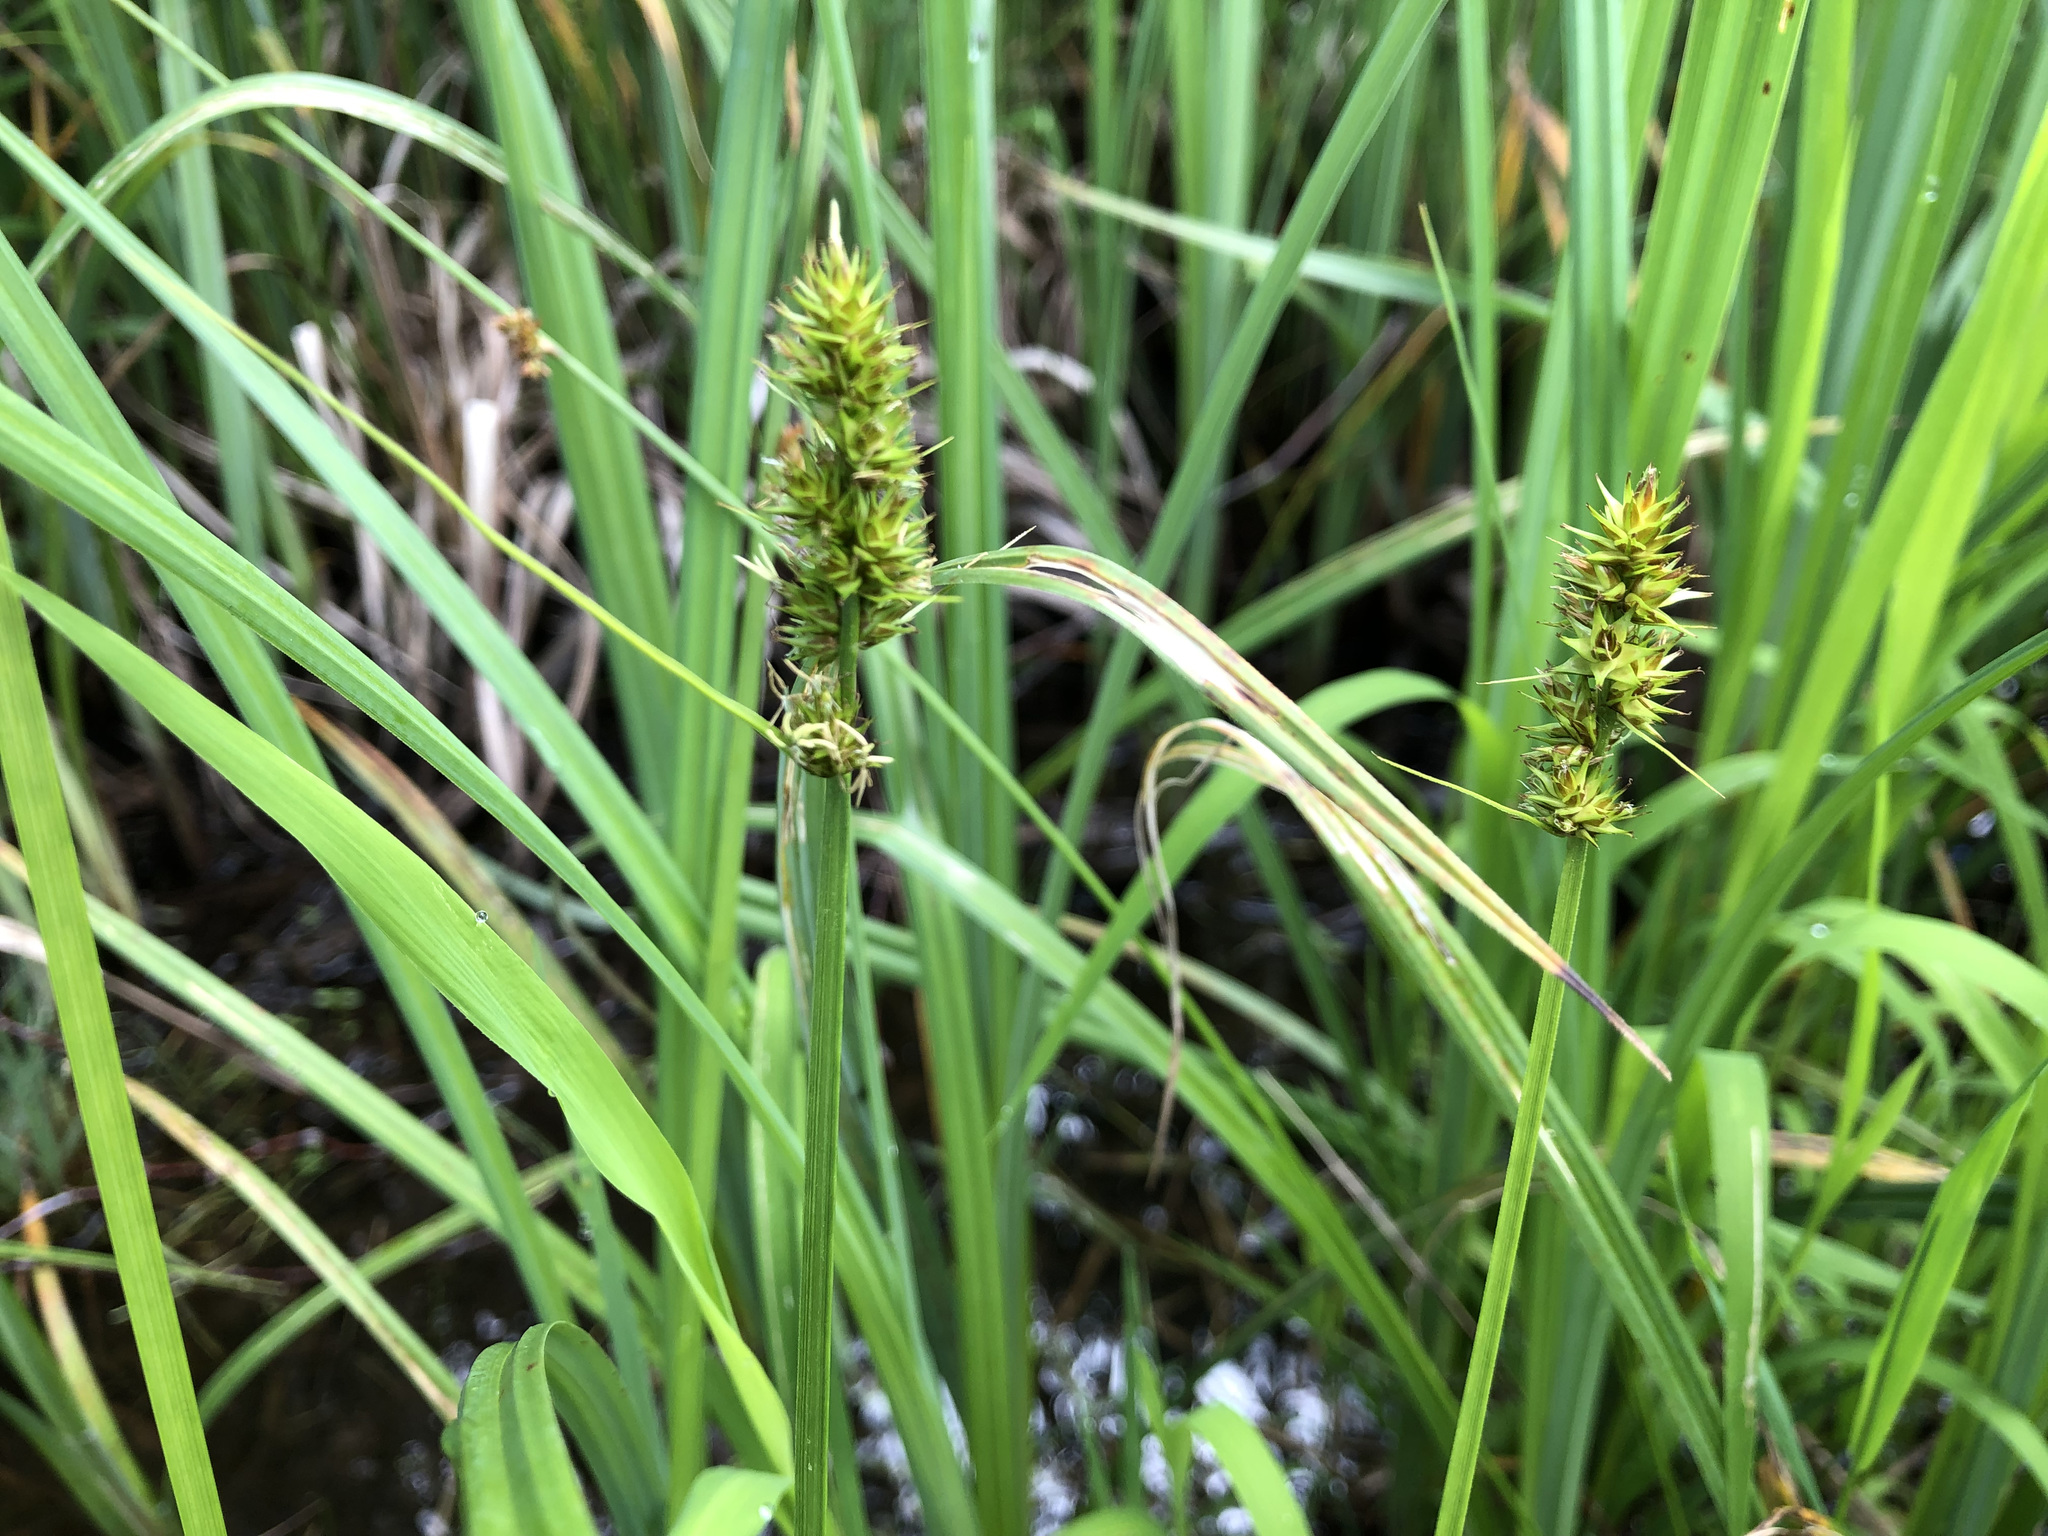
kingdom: Plantae
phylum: Tracheophyta
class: Liliopsida
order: Poales
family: Cyperaceae
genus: Carex
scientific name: Carex otrubae
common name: False fox-sedge
